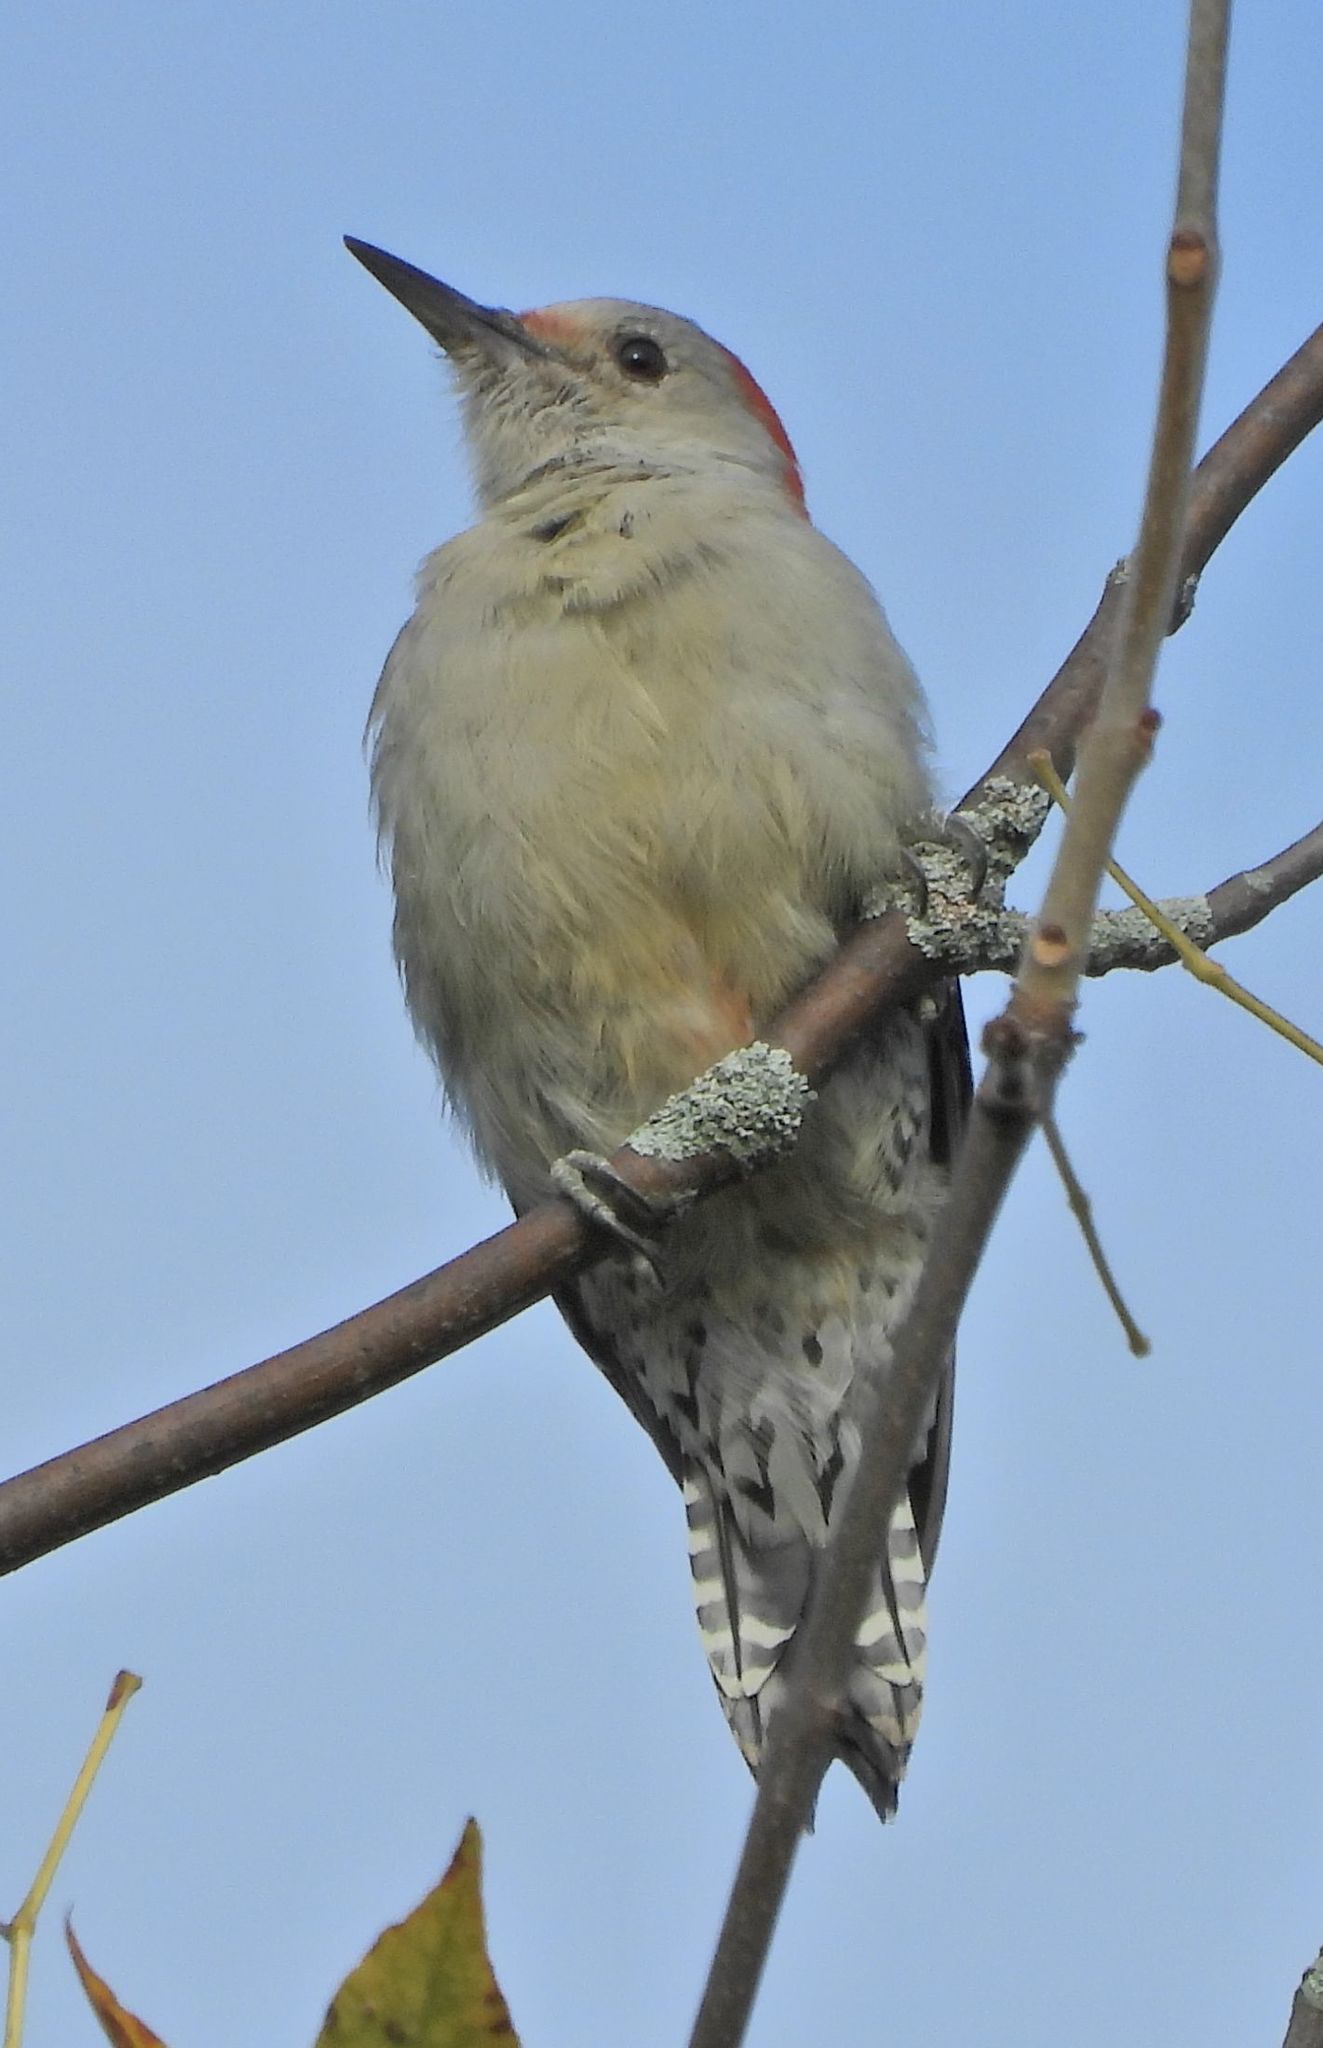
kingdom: Animalia
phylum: Chordata
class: Aves
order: Piciformes
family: Picidae
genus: Melanerpes
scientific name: Melanerpes carolinus
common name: Red-bellied woodpecker
